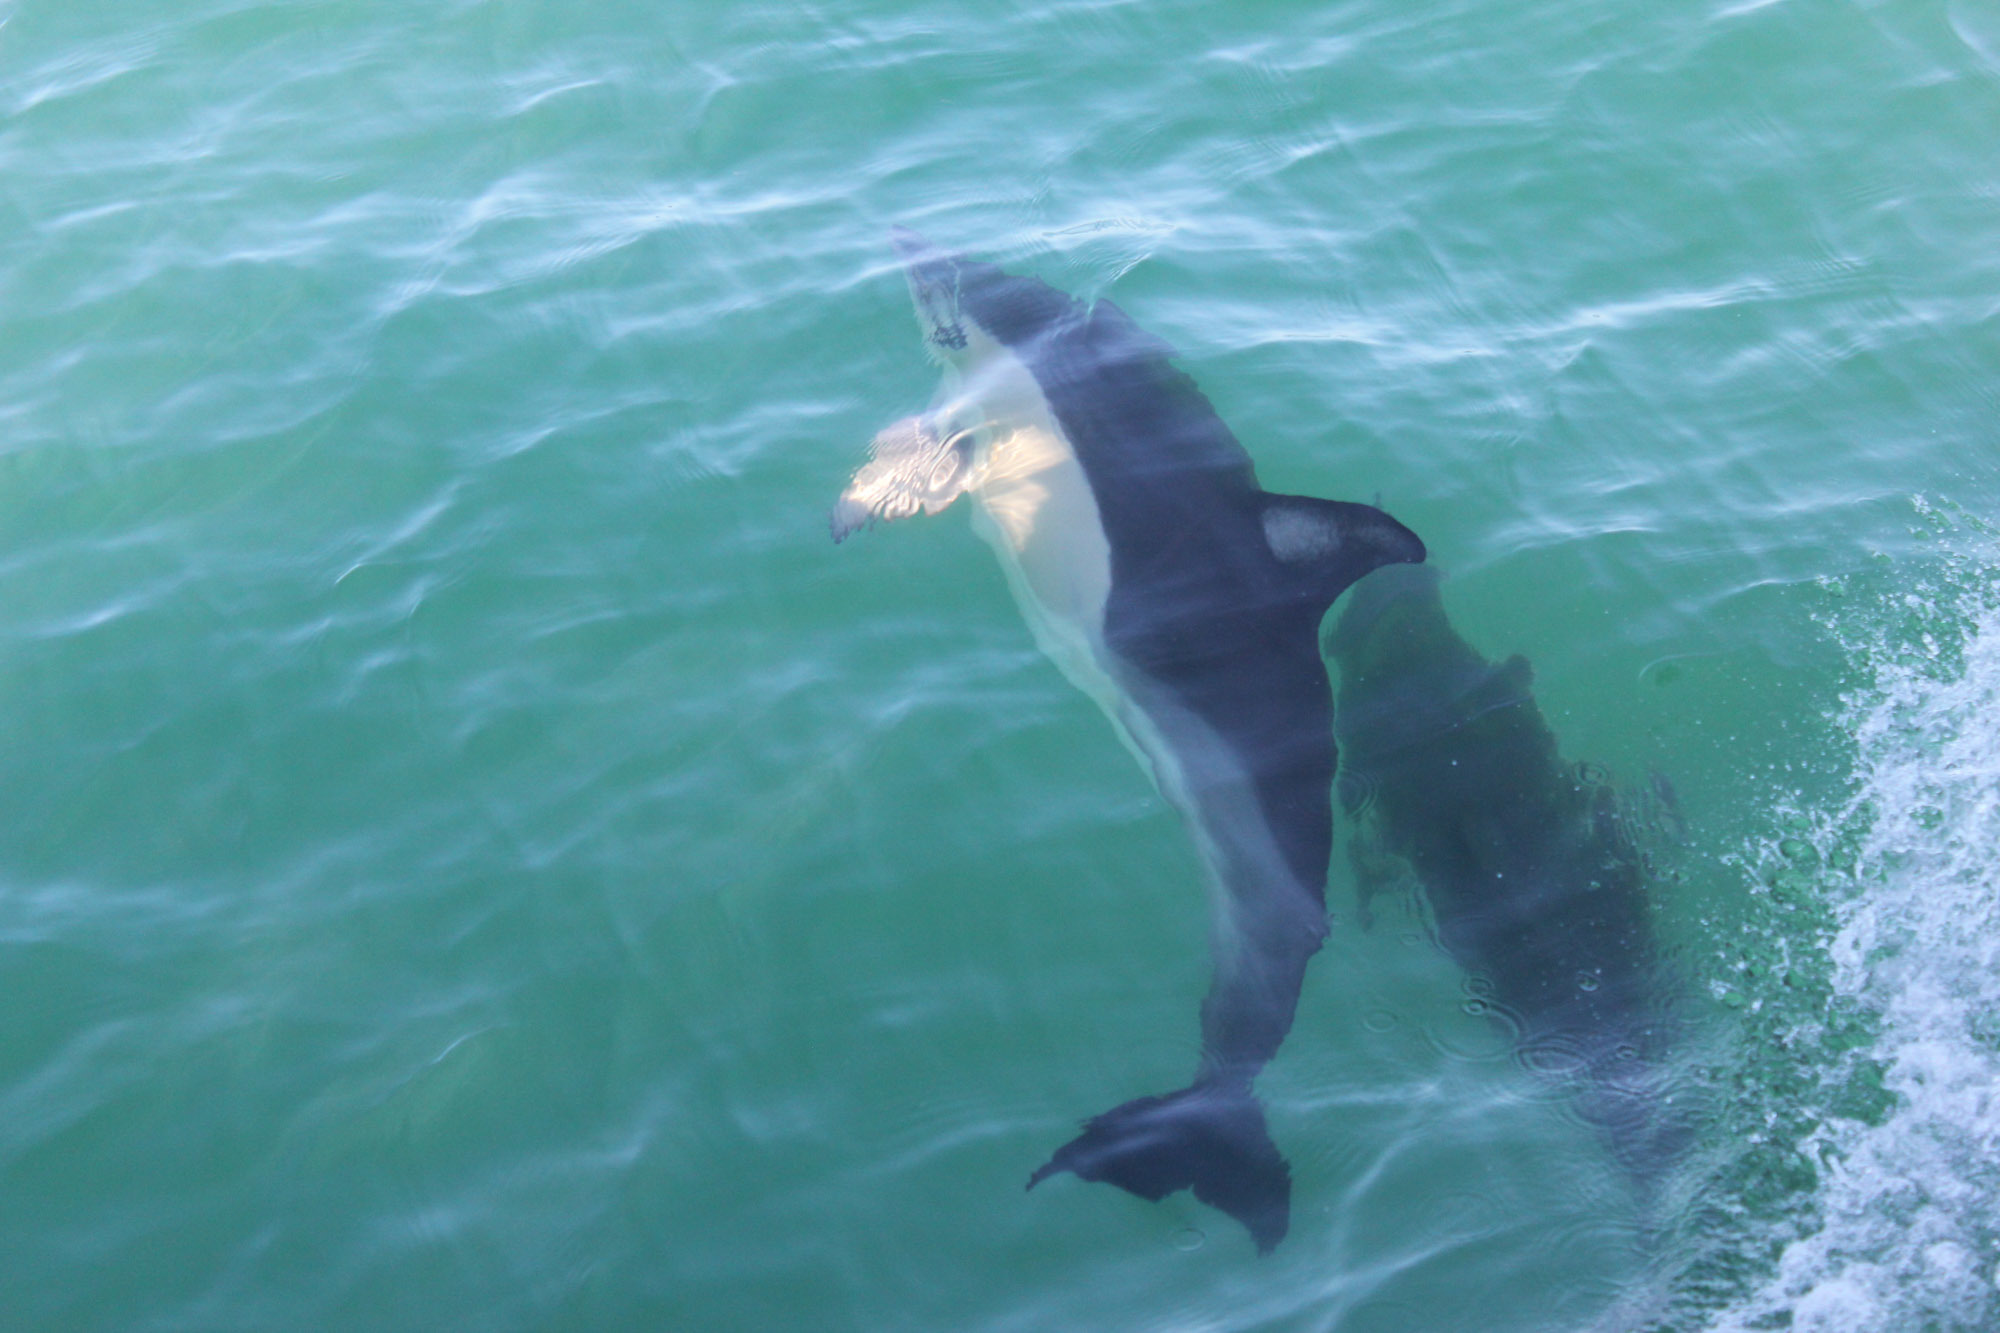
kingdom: Animalia
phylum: Chordata
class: Mammalia
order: Cetacea
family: Delphinidae
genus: Delphinus
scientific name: Delphinus delphis
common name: Common dolphin
